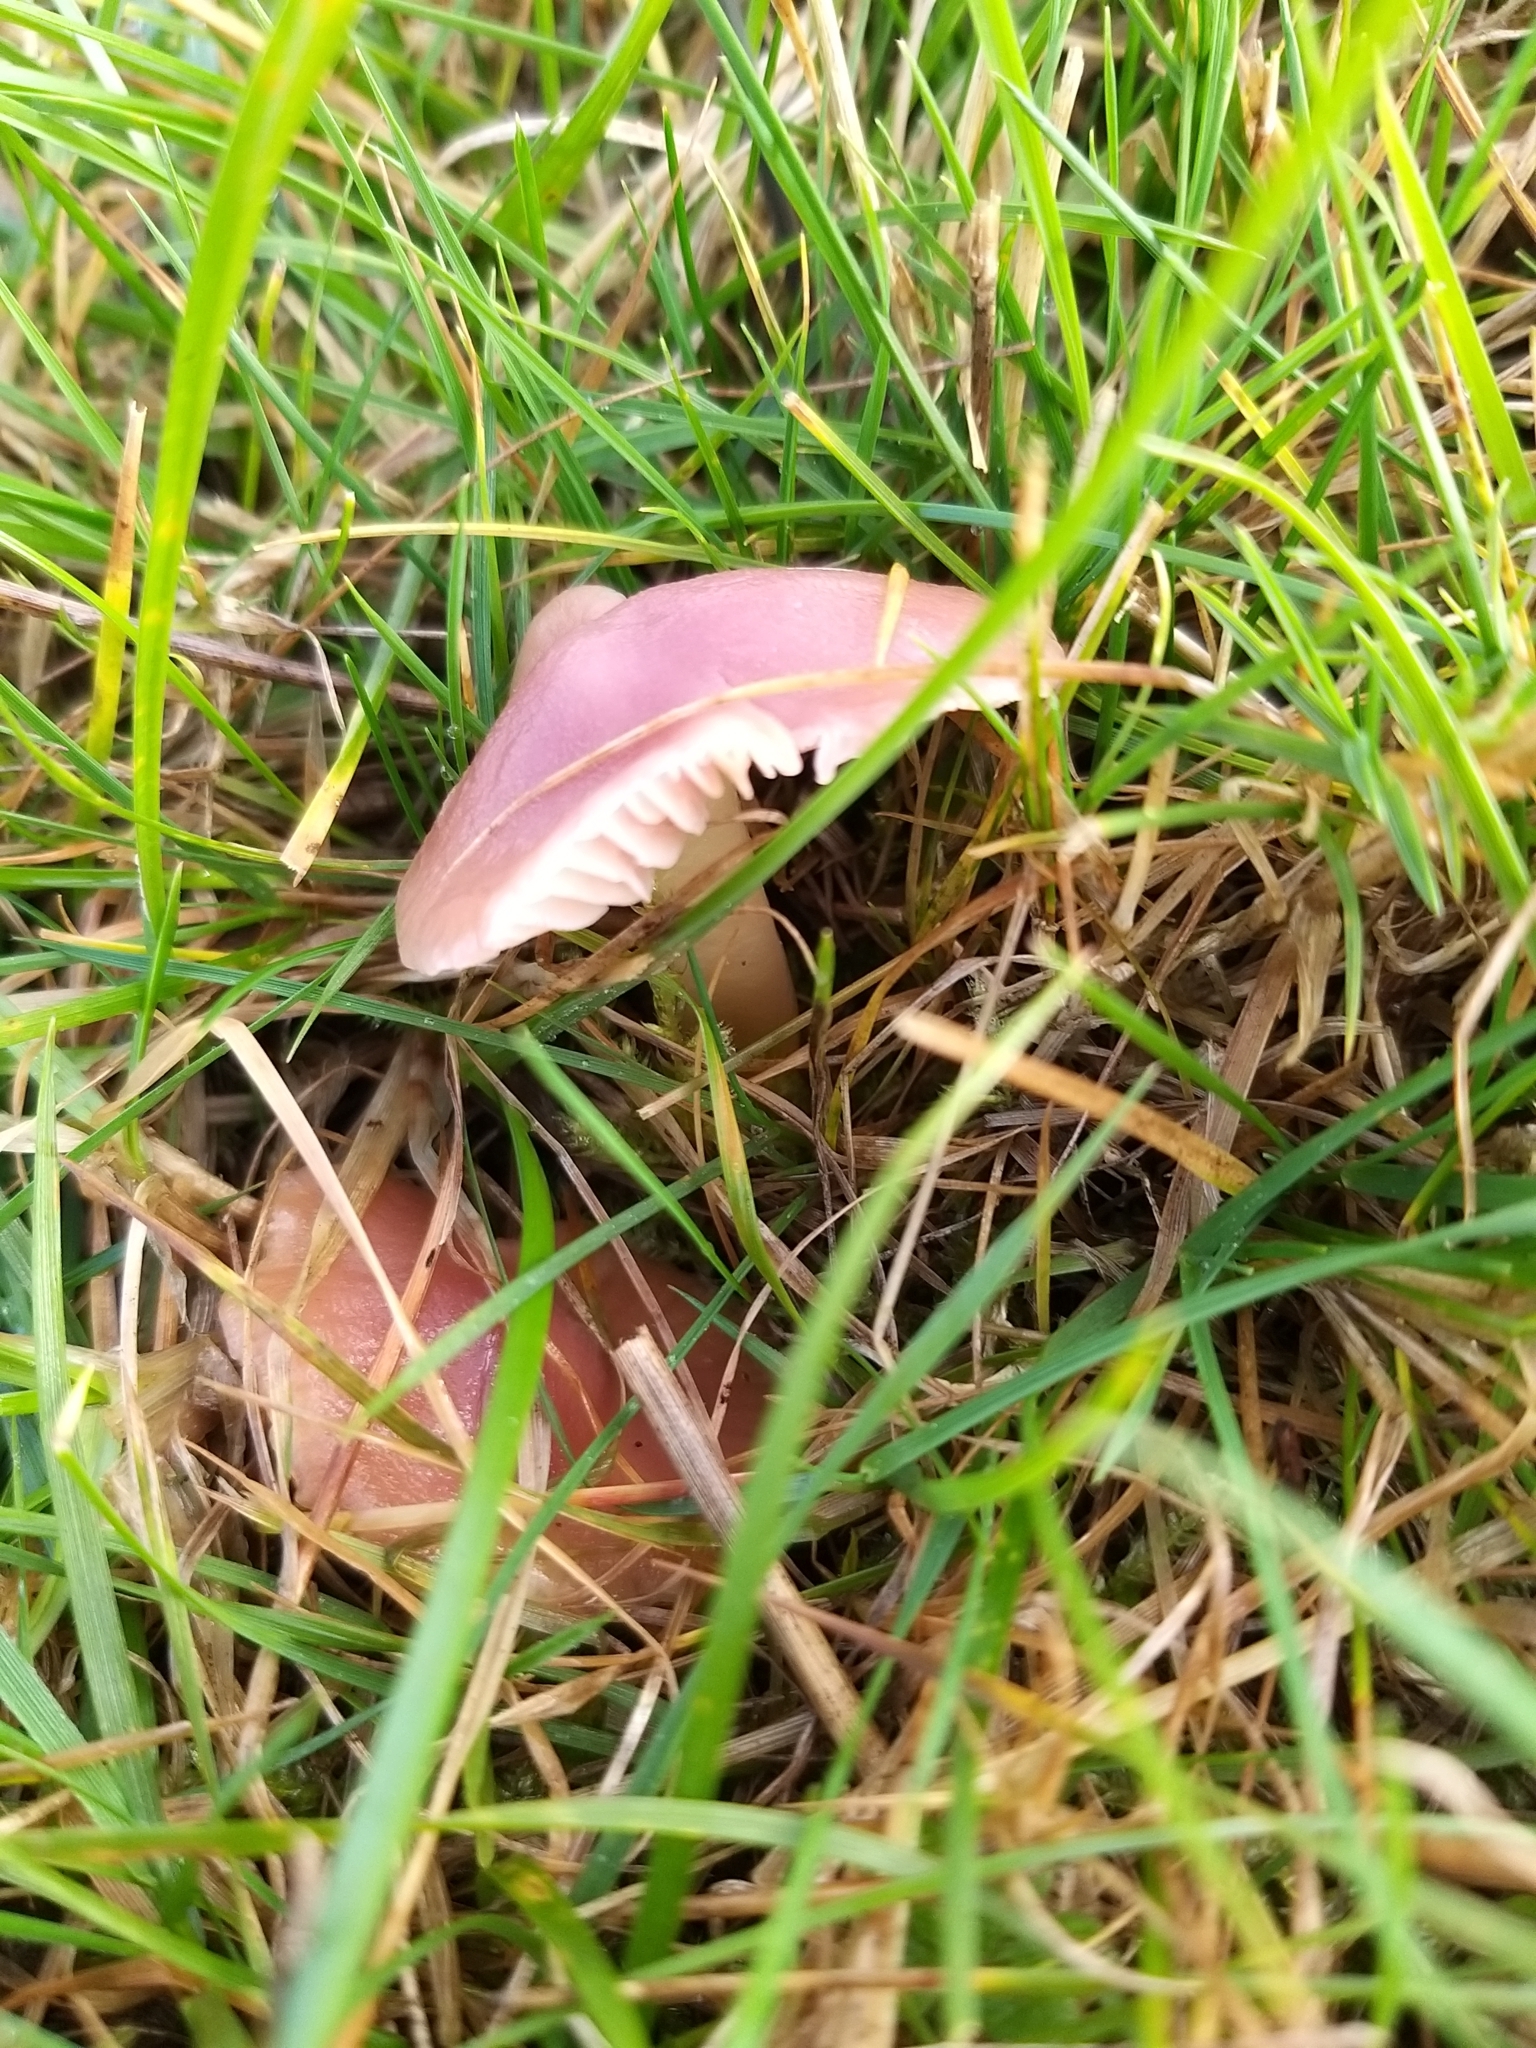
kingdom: Fungi
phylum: Basidiomycota
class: Agaricomycetes
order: Agaricales
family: Hygrophoraceae
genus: Gliophorus
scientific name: Gliophorus reginae
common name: Jubilee waxcap
